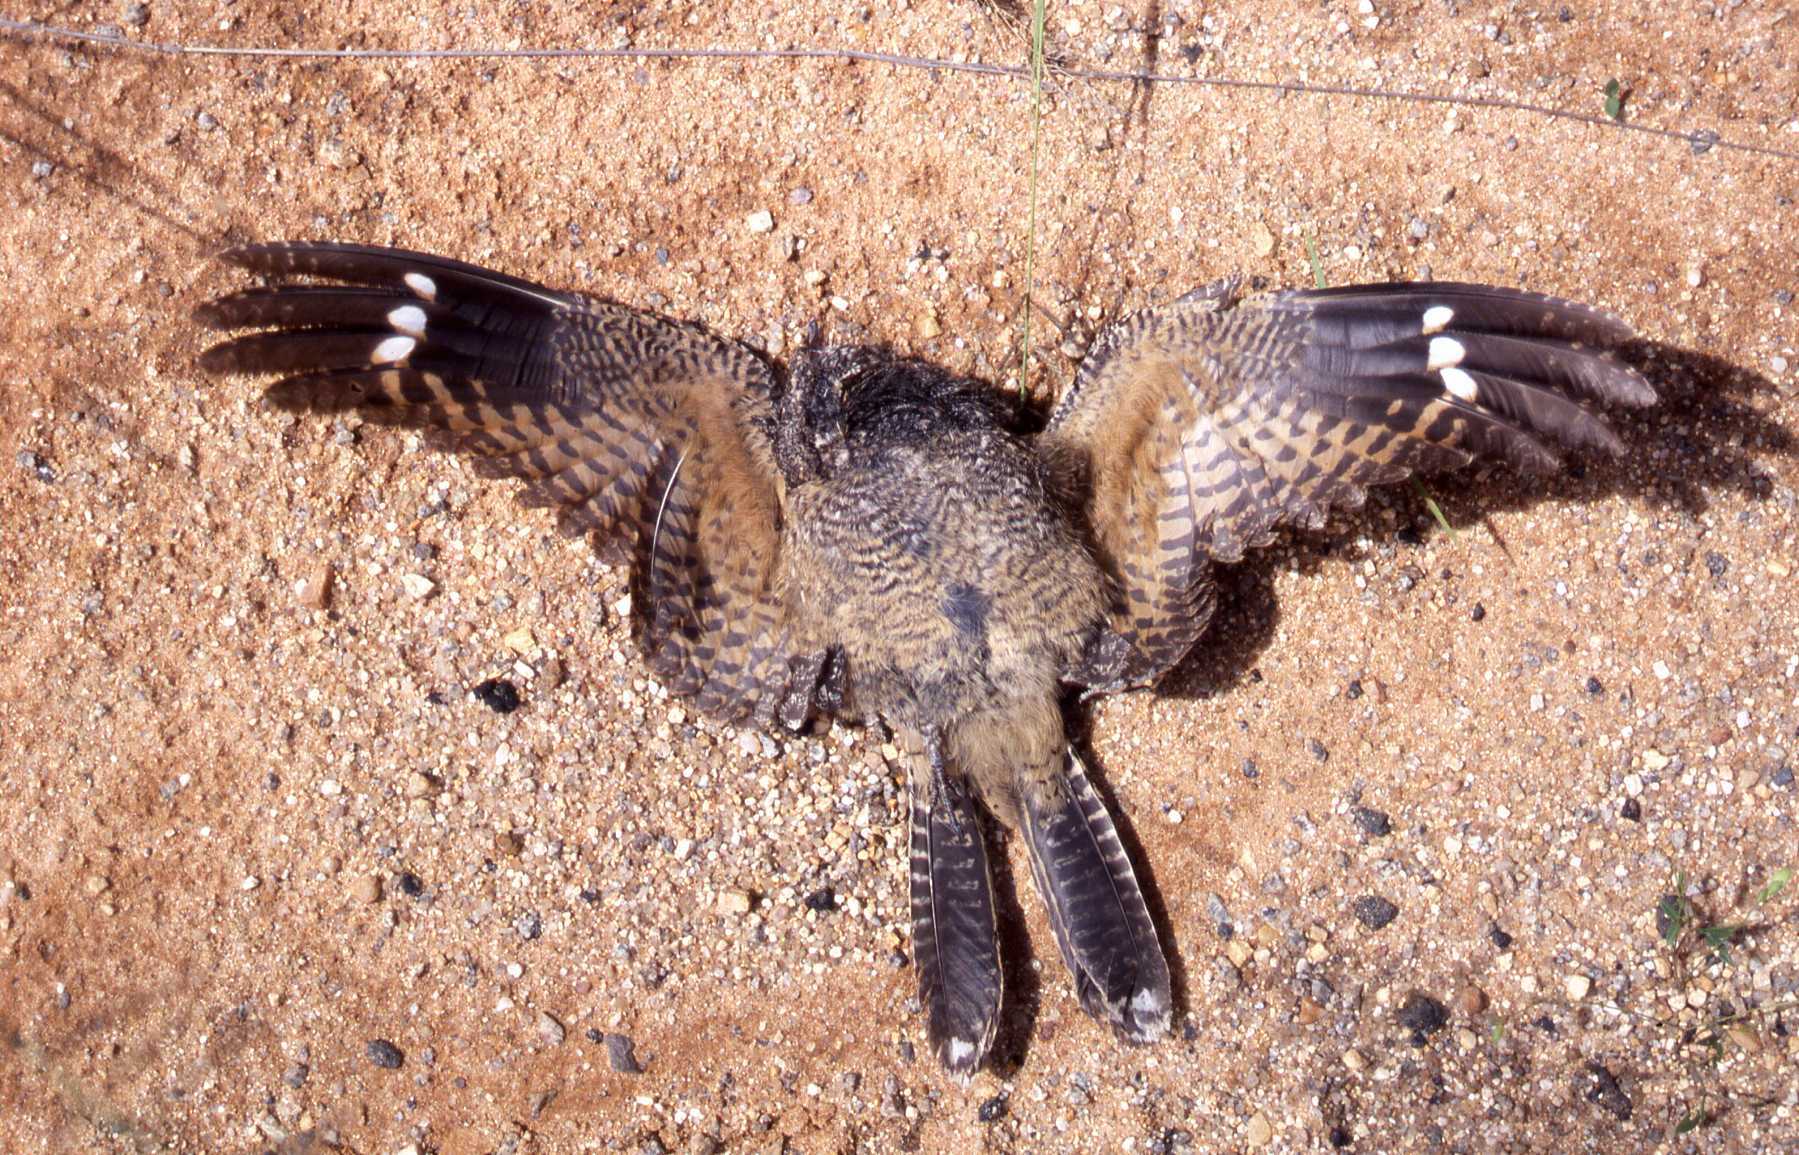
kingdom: Animalia
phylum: Chordata
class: Aves
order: Caprimulgiformes
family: Caprimulgidae
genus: Caprimulgus
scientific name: Caprimulgus tristigma
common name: Freckled nightjar
